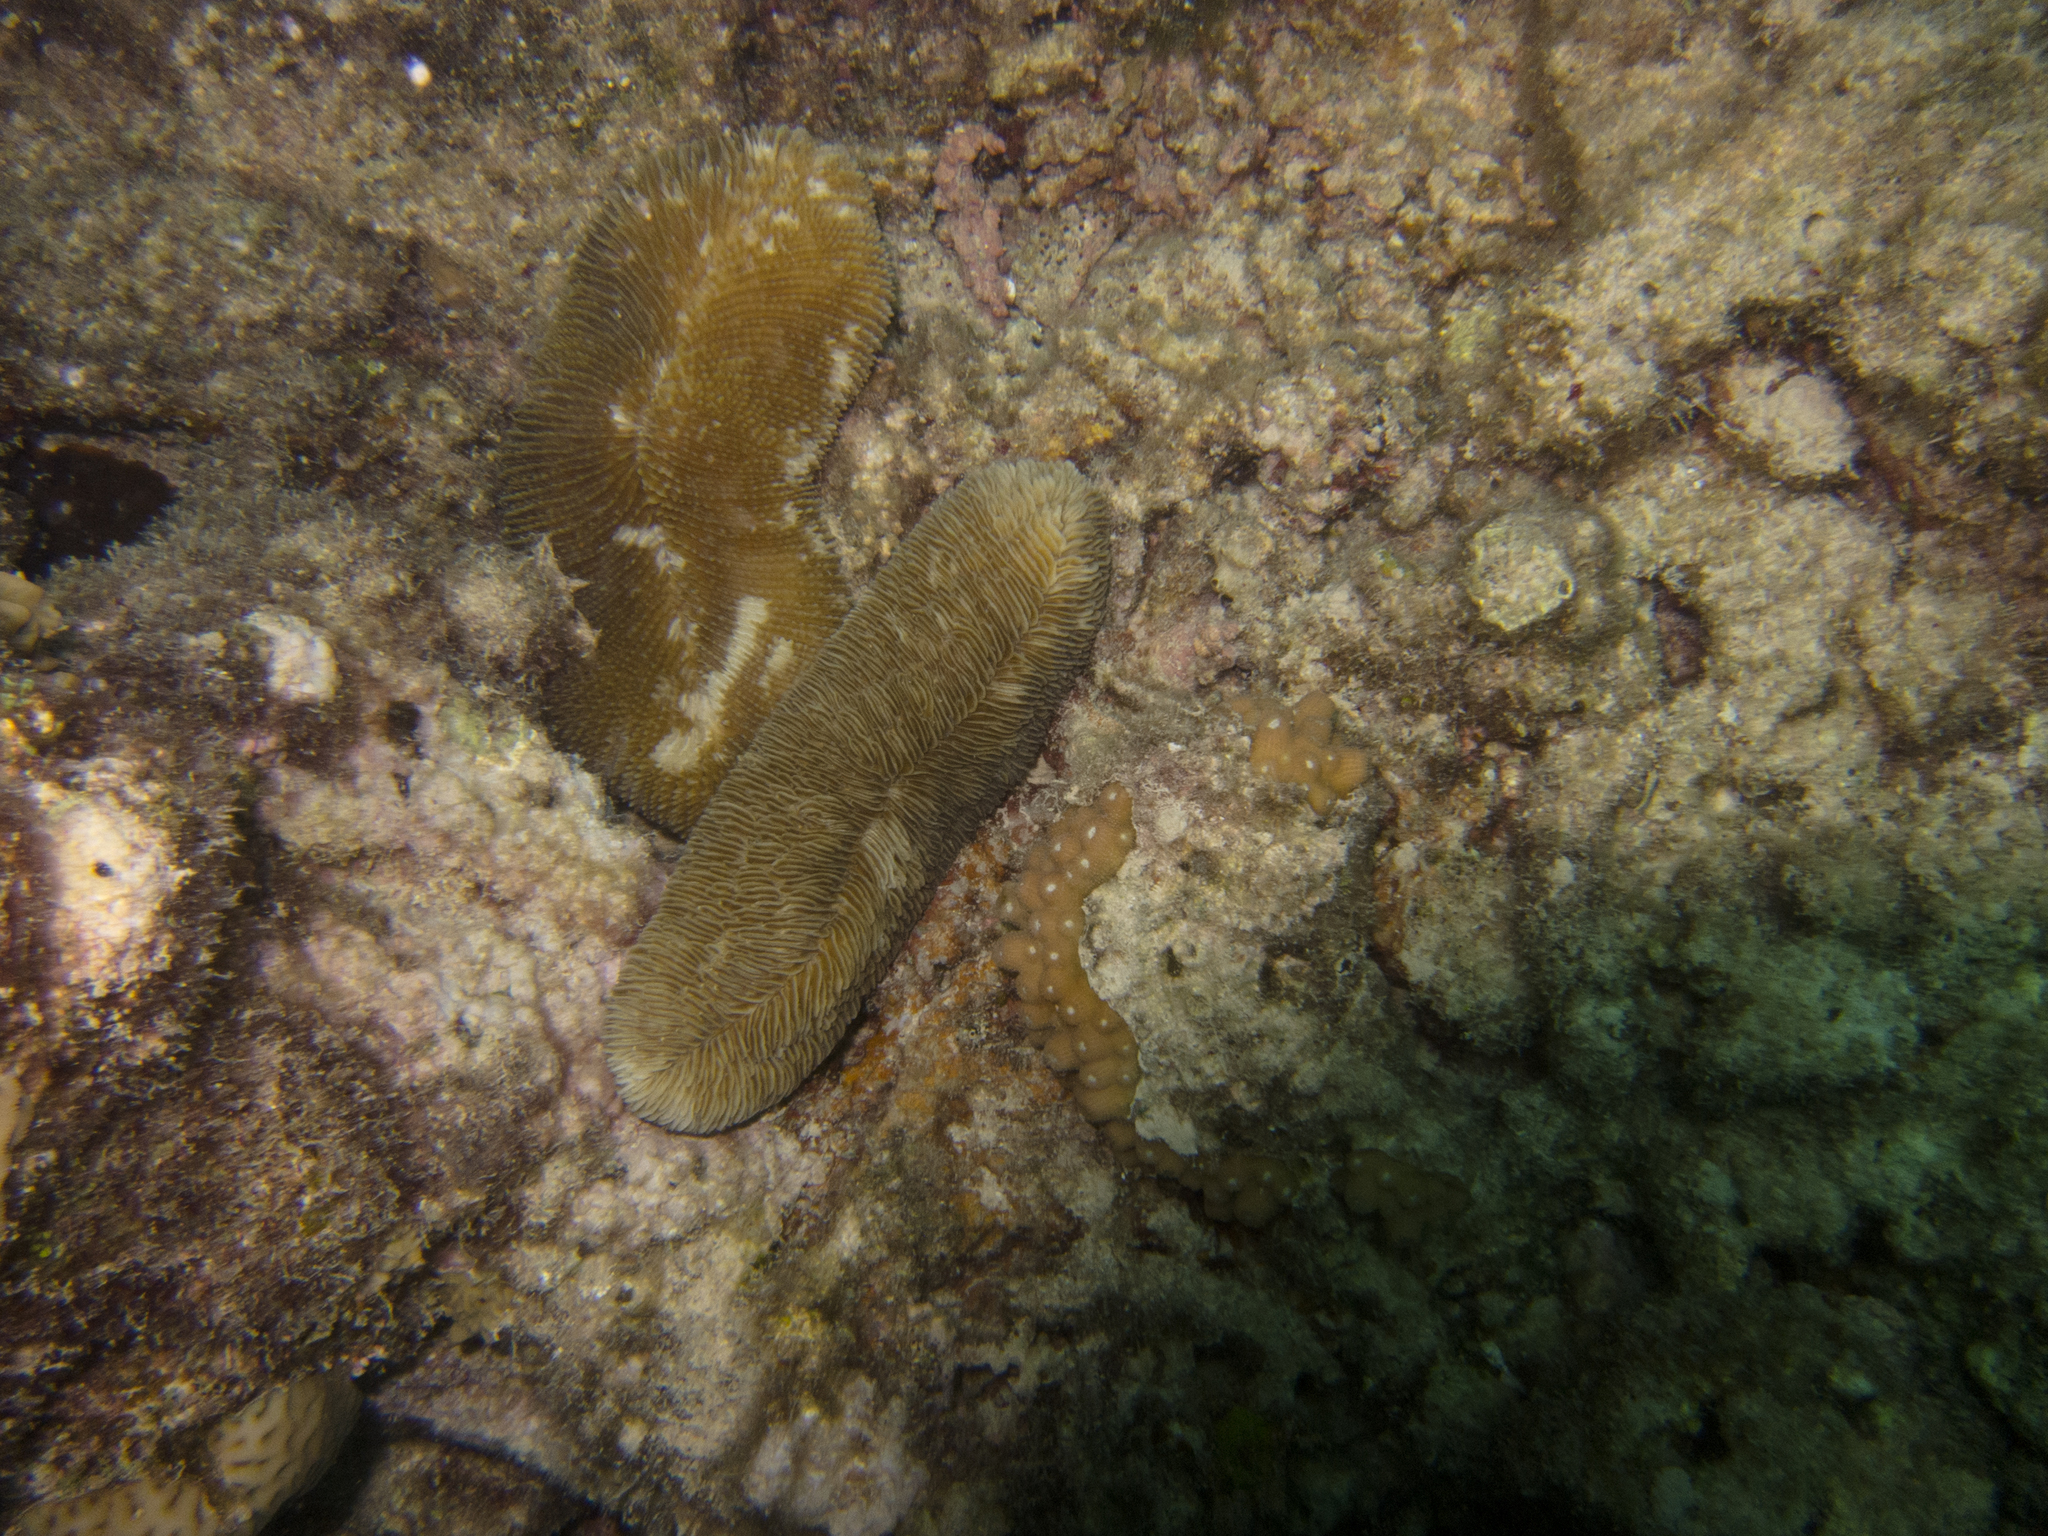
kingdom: Animalia
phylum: Cnidaria
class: Anthozoa
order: Scleractinia
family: Merulinidae
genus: Echinopora
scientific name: Echinopora forskaliana
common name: Hedgehog coral
